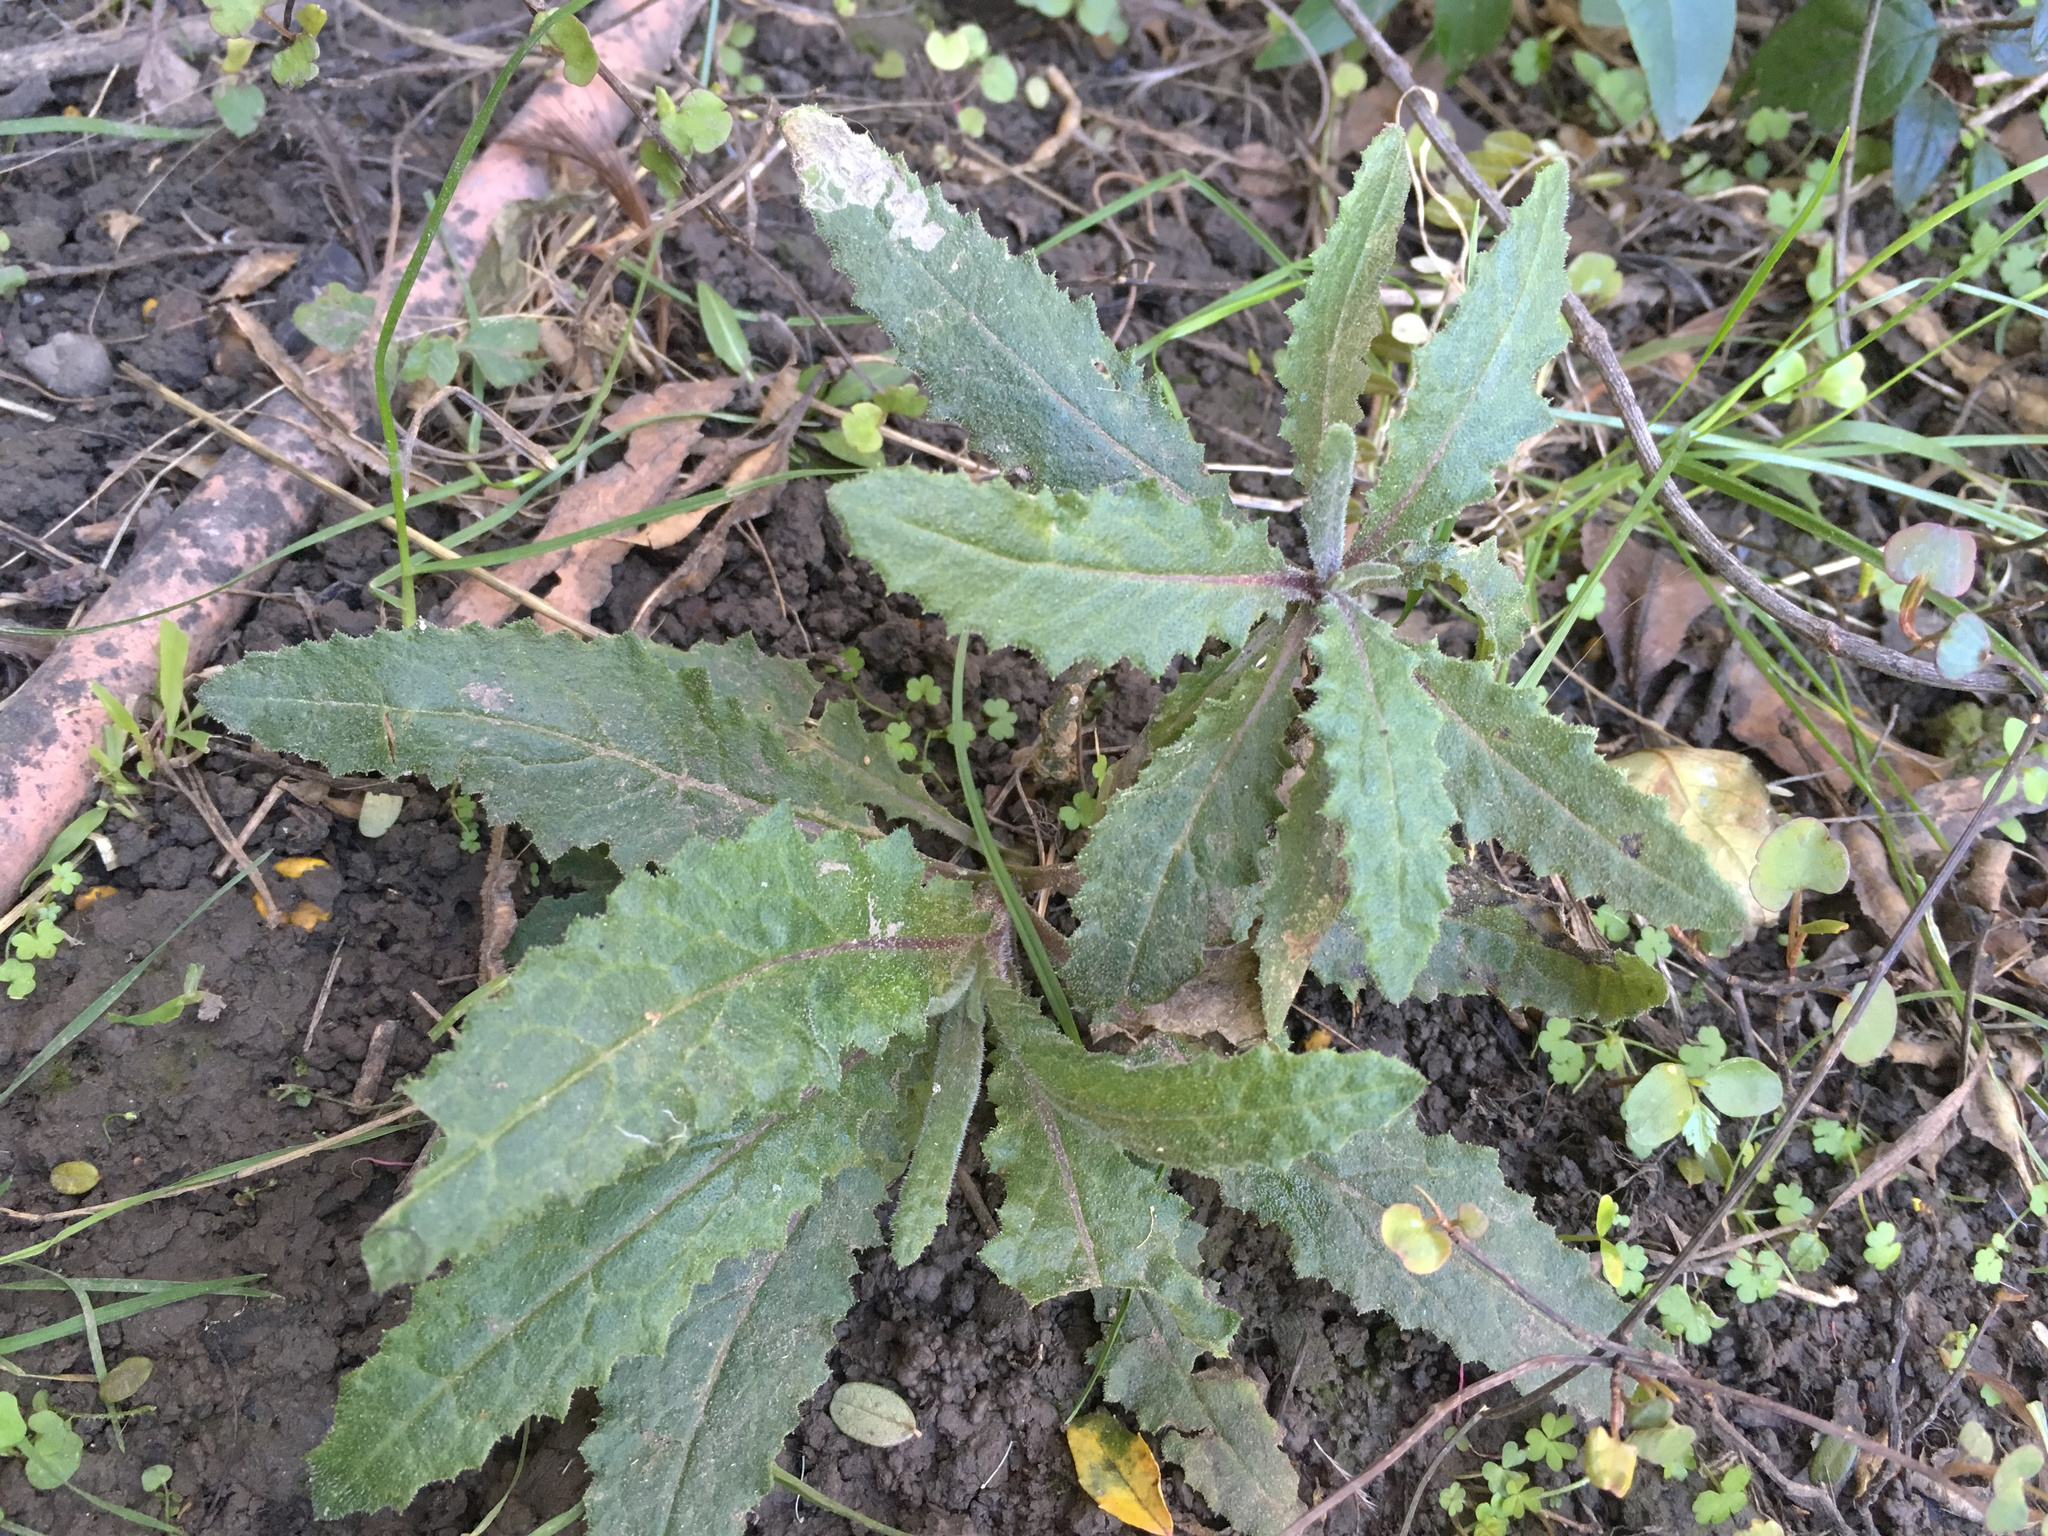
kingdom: Plantae
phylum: Tracheophyta
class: Magnoliopsida
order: Asterales
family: Asteraceae
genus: Senecio
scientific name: Senecio minimus
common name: Toothed fireweed
